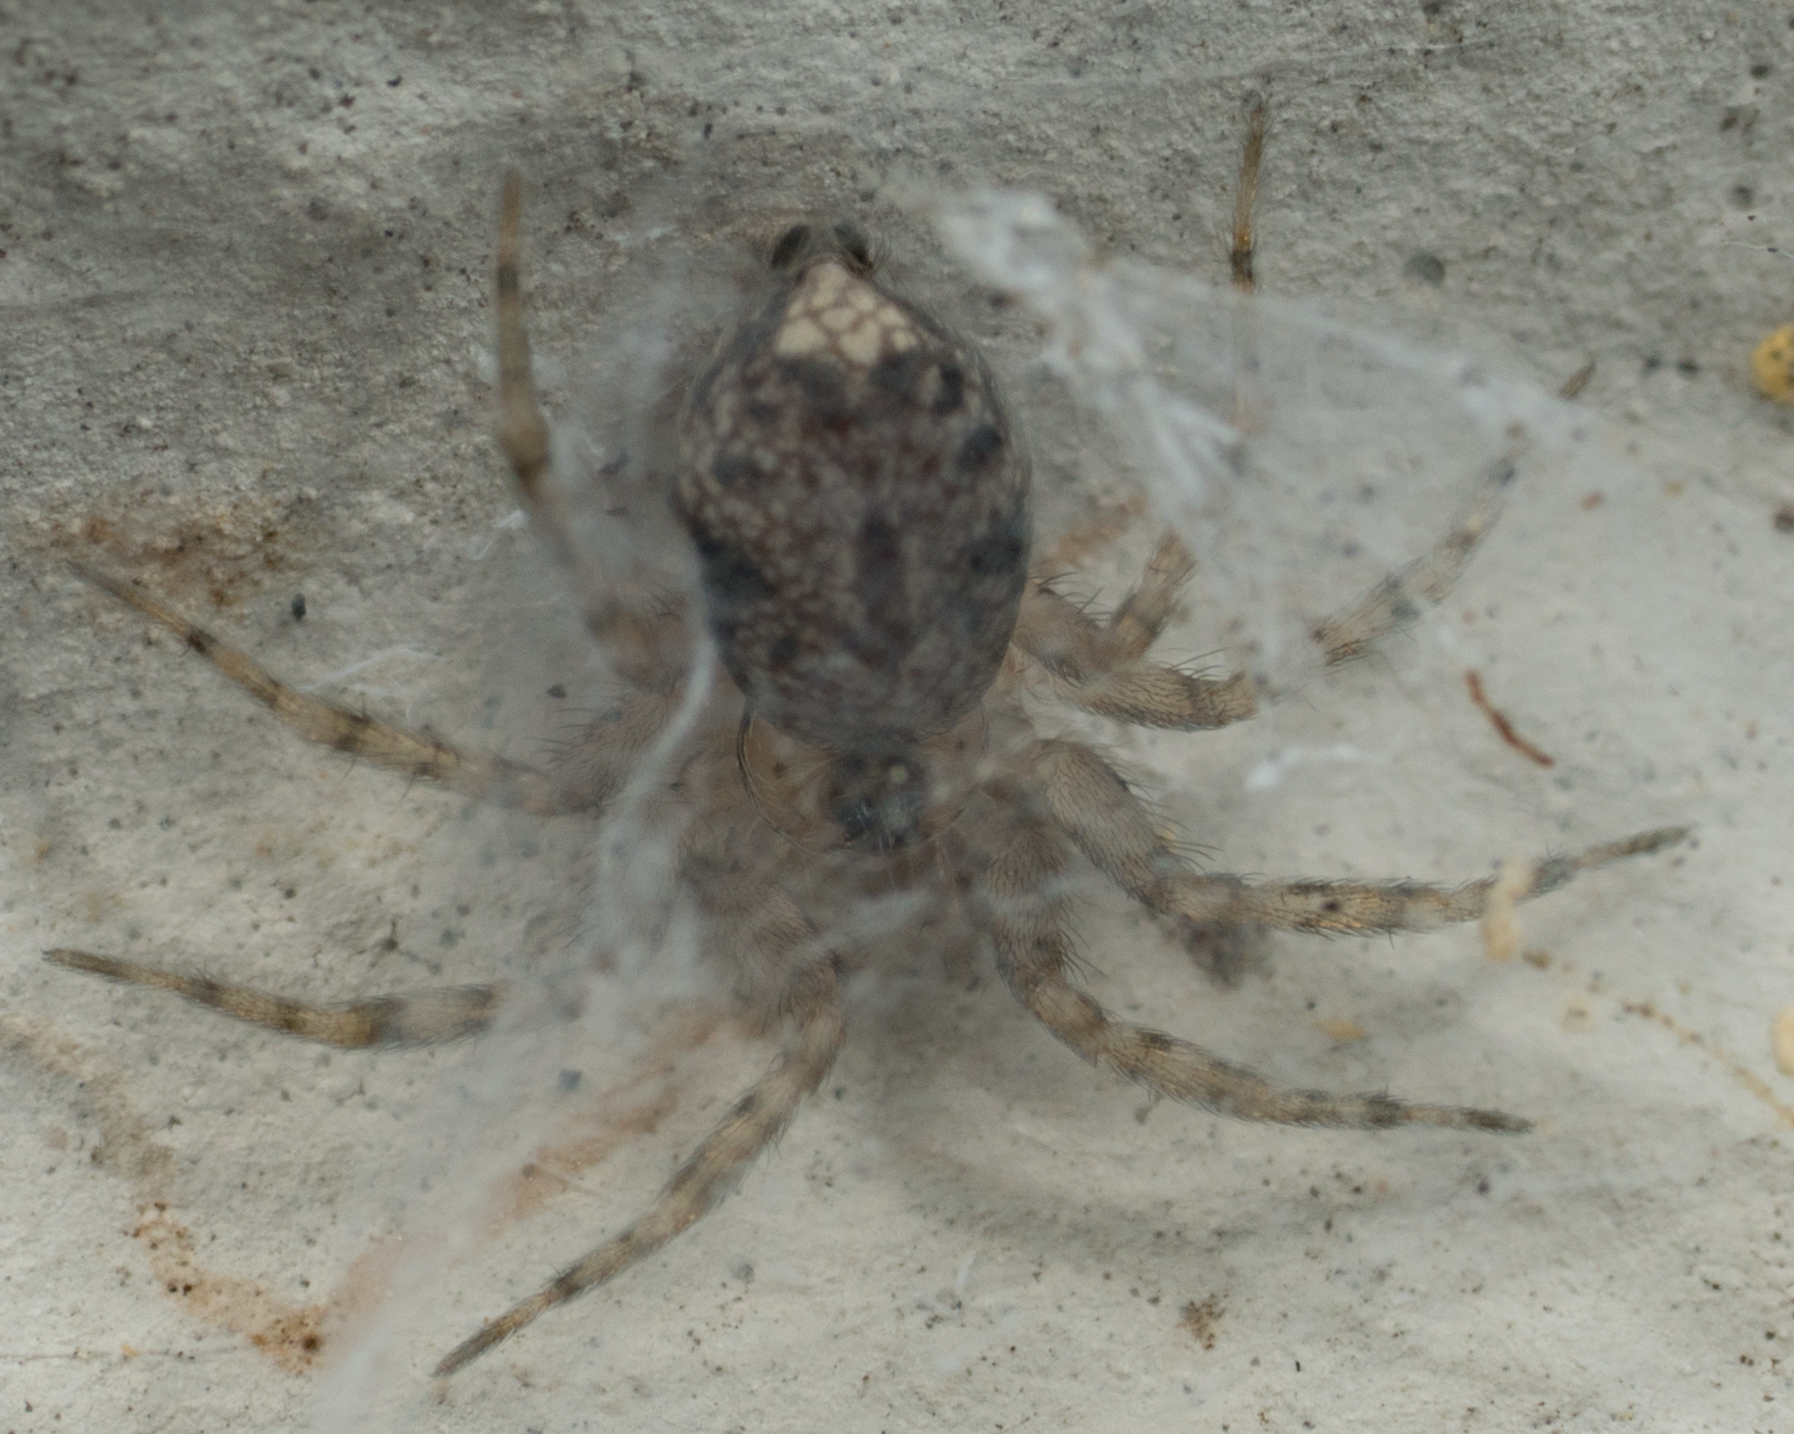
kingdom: Animalia
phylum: Arthropoda
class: Arachnida
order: Araneae
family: Oecobiidae
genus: Oecobius
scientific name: Oecobius navus
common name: Flatmesh weaver
